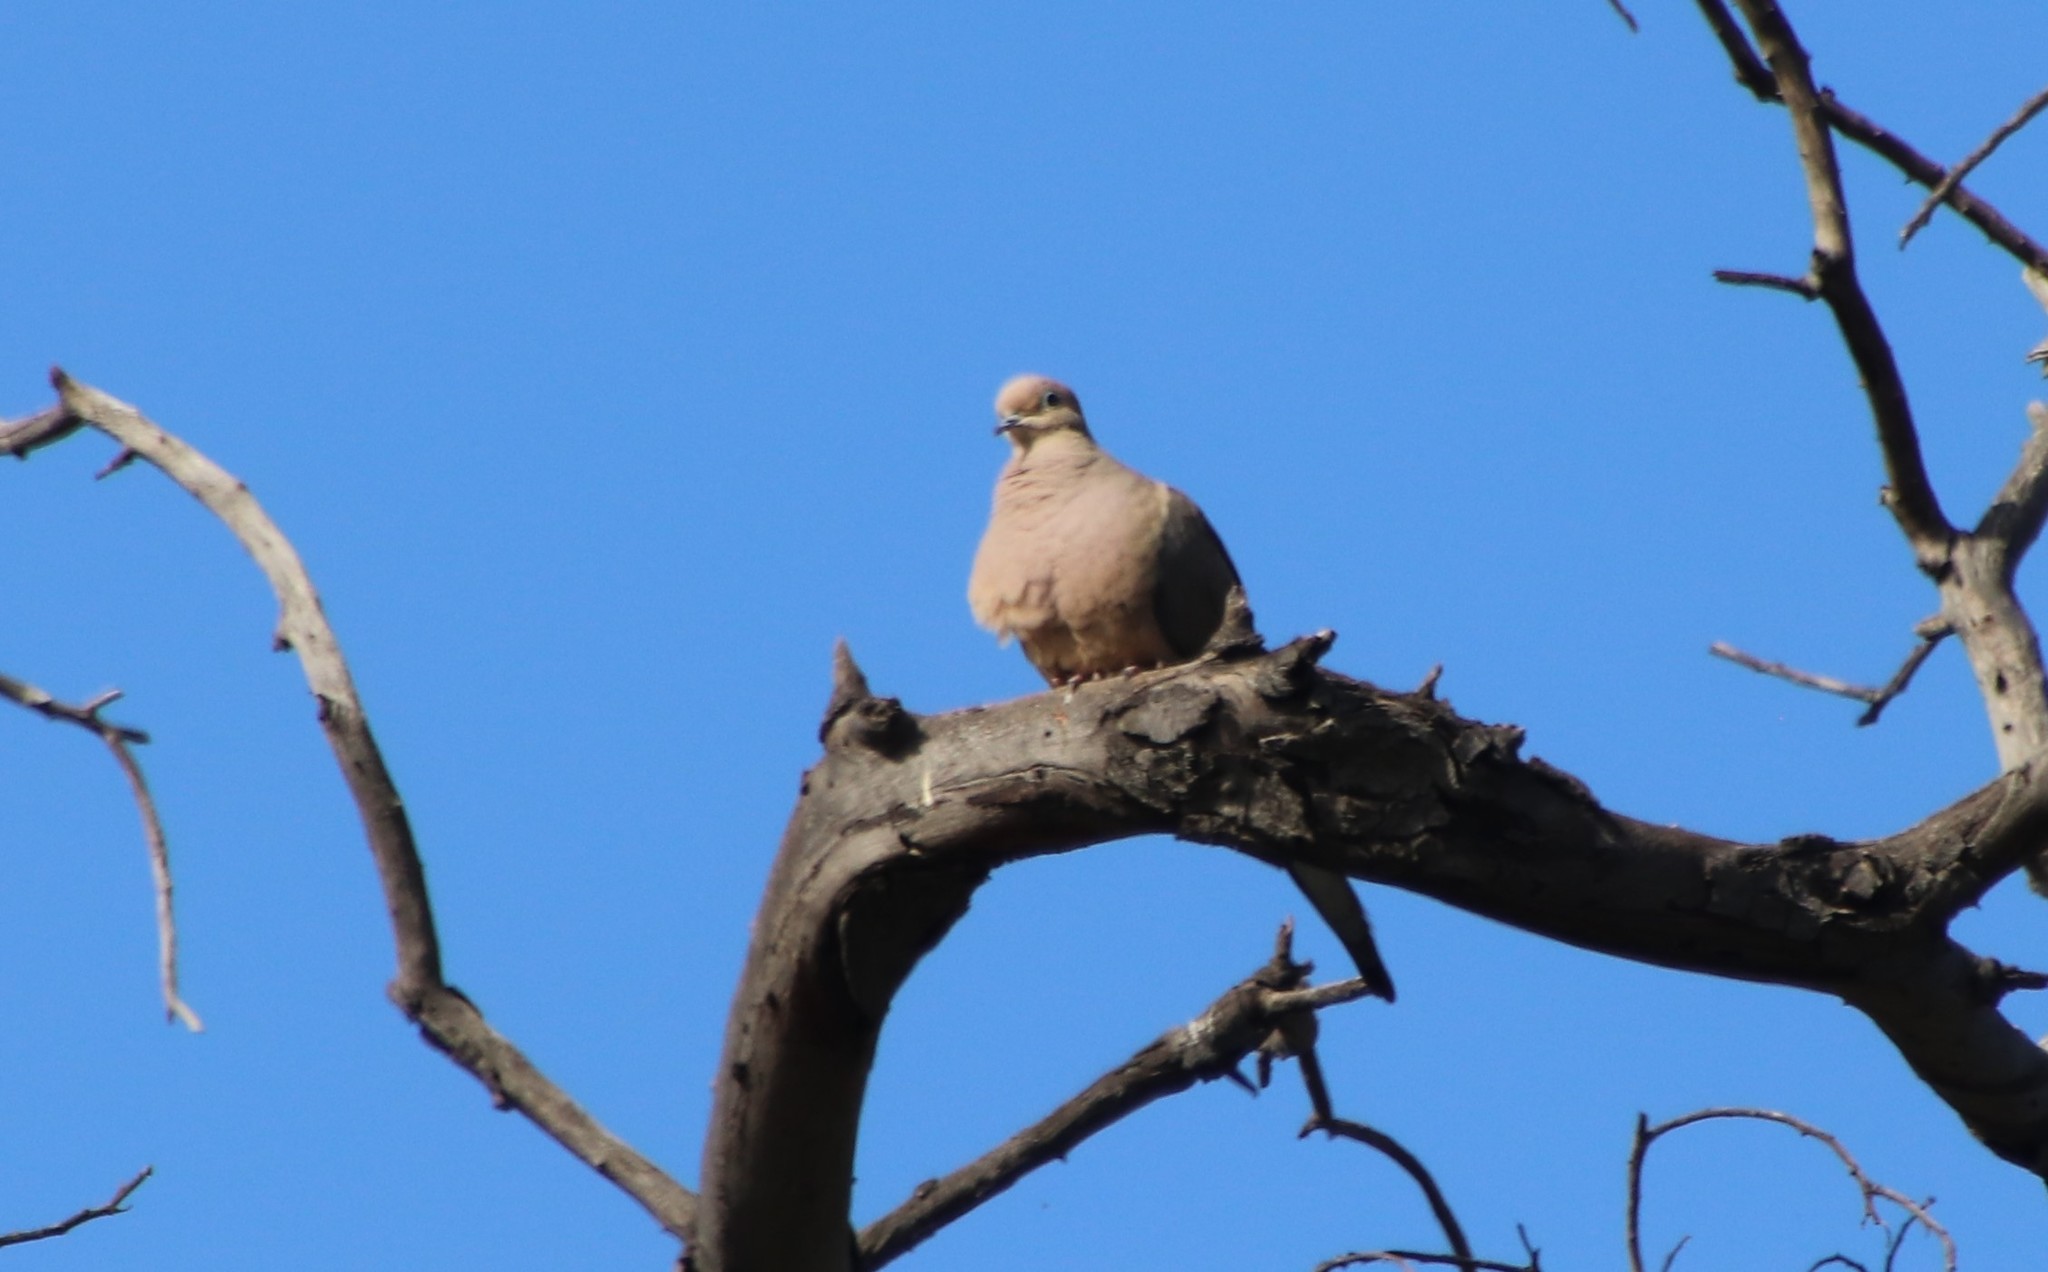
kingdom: Animalia
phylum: Chordata
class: Aves
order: Columbiformes
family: Columbidae
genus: Zenaida
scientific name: Zenaida macroura
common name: Mourning dove
